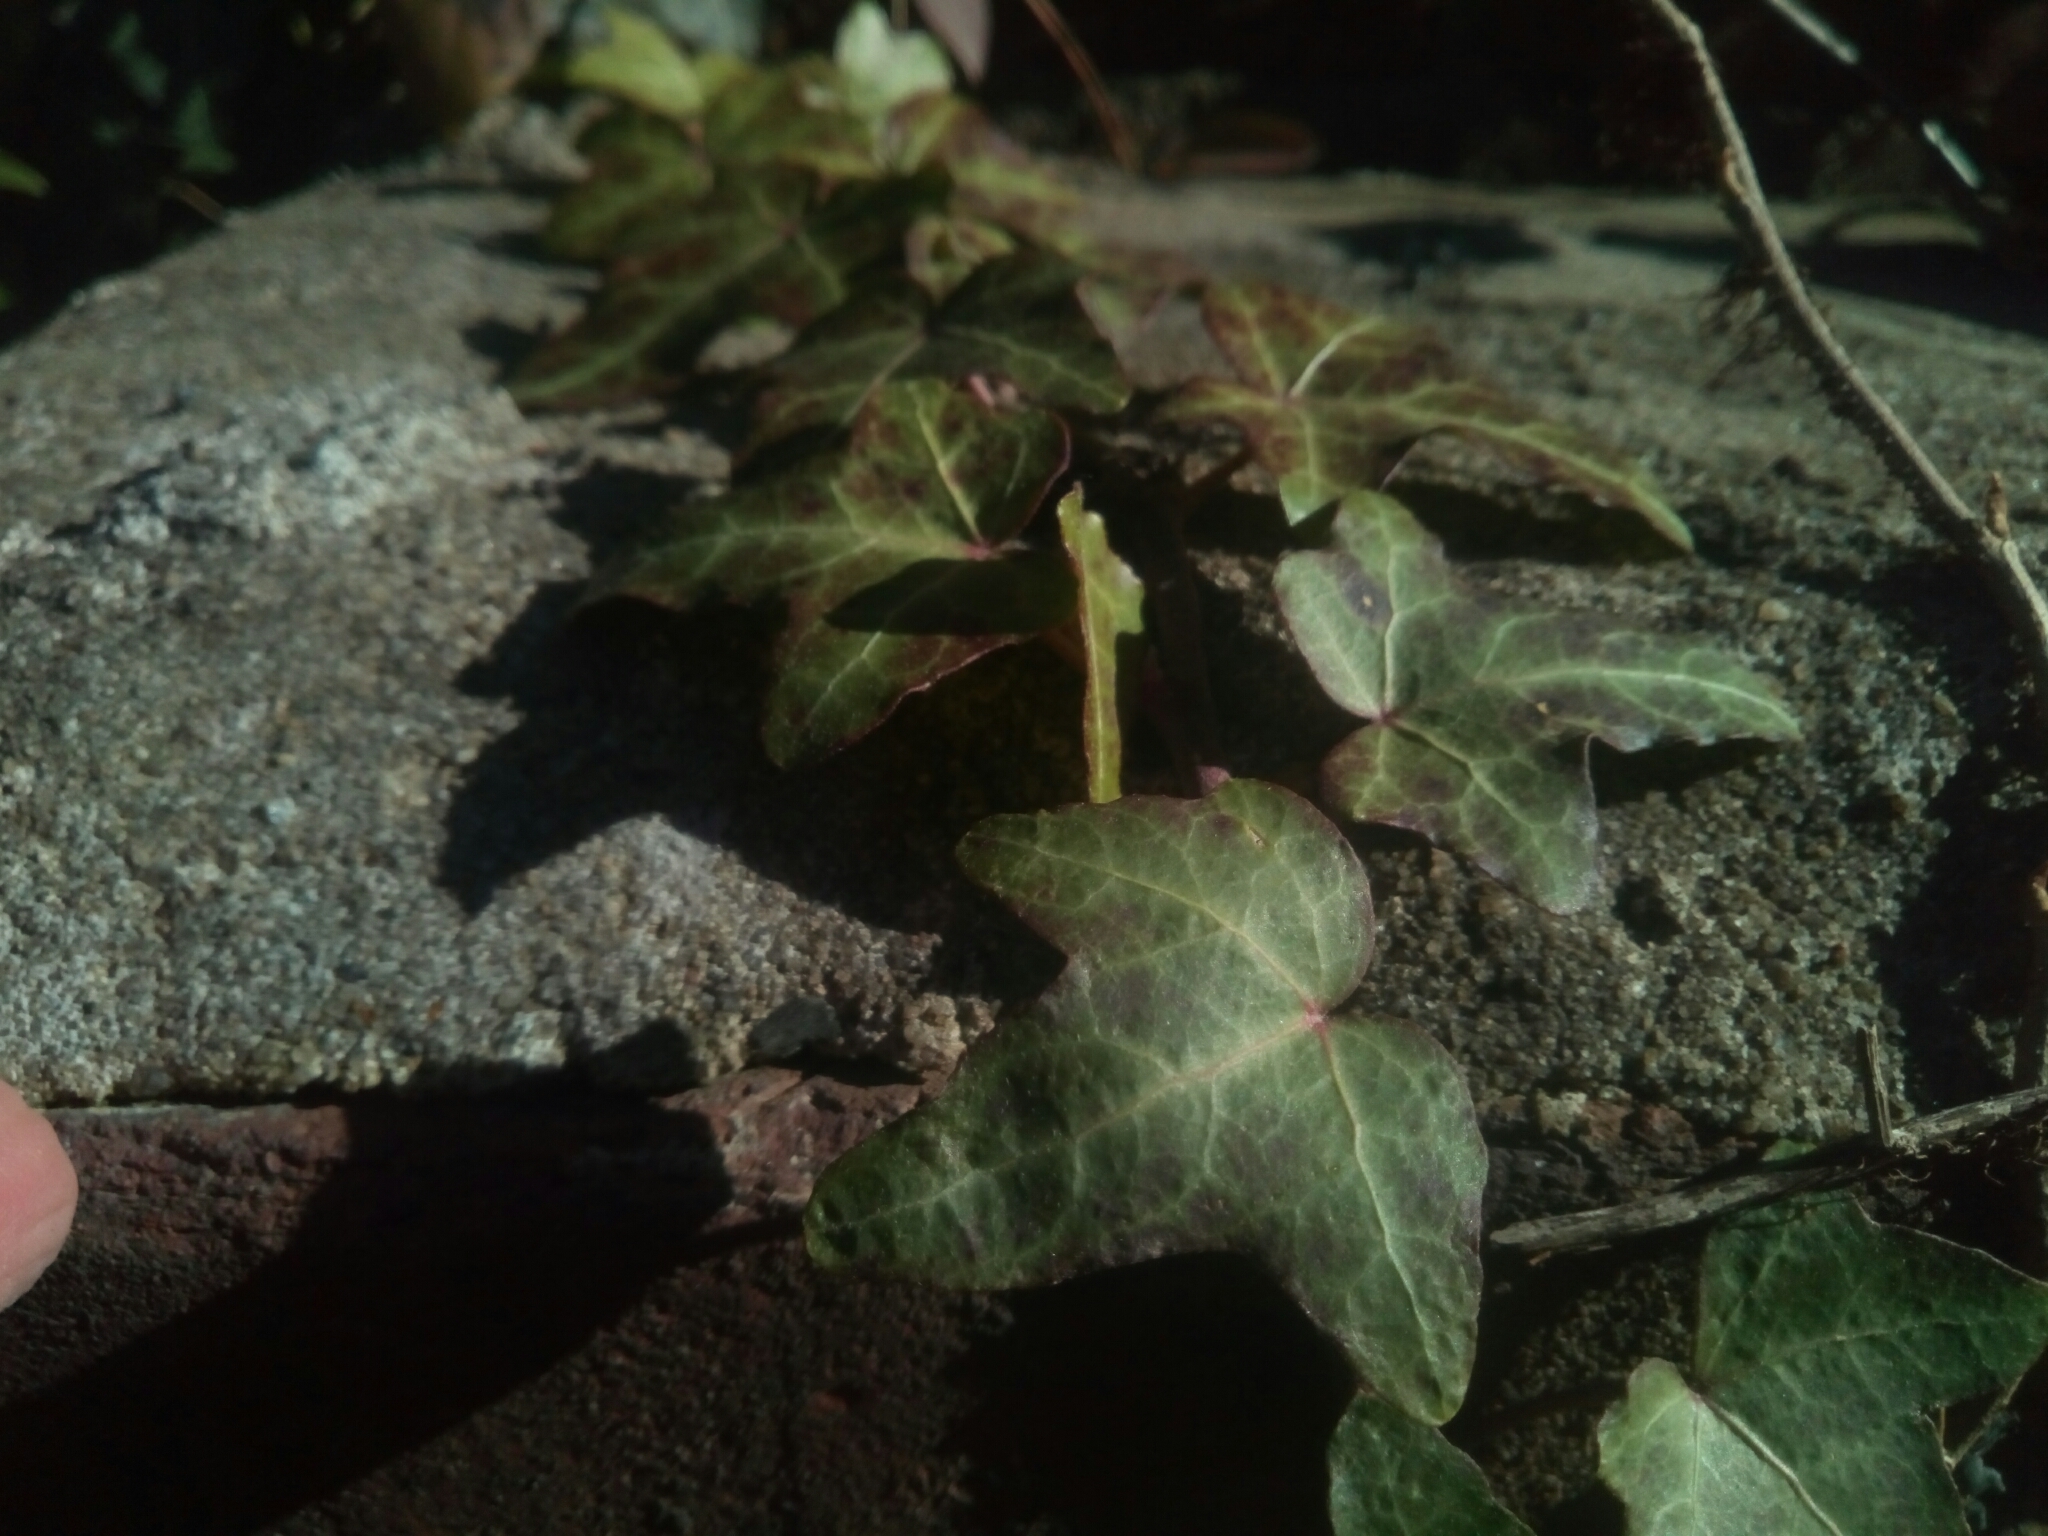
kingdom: Plantae
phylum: Tracheophyta
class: Magnoliopsida
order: Apiales
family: Araliaceae
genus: Hedera
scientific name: Hedera helix
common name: Ivy
